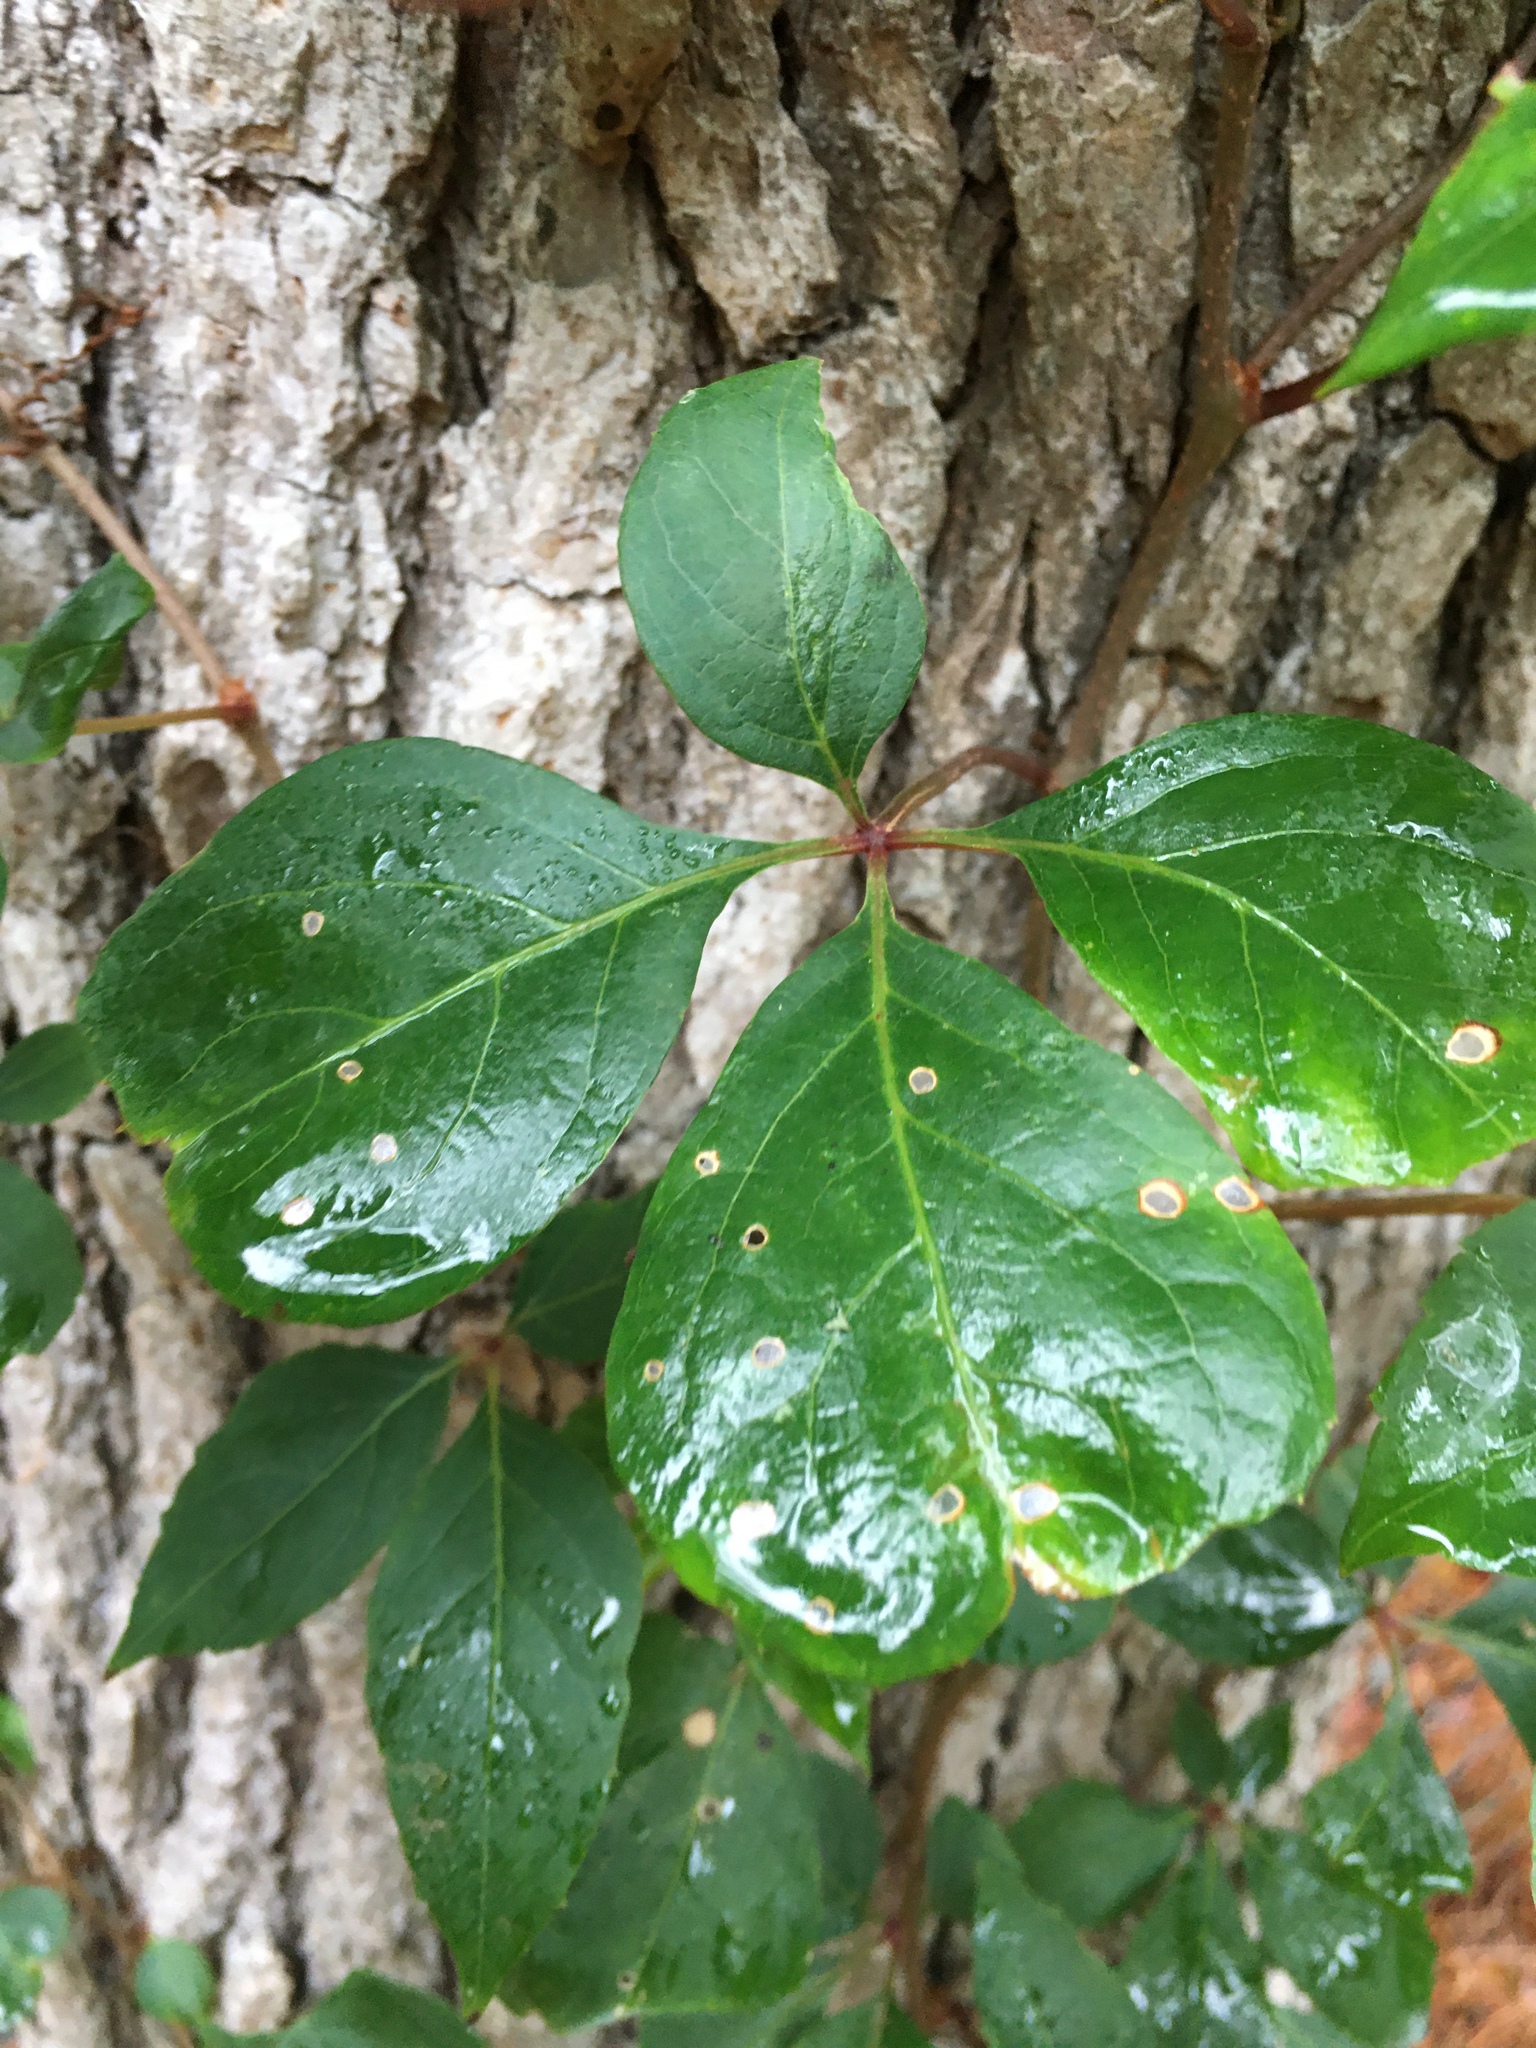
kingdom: Plantae
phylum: Tracheophyta
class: Magnoliopsida
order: Vitales
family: Vitaceae
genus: Parthenocissus
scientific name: Parthenocissus quinquefolia
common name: Virginia-creeper
